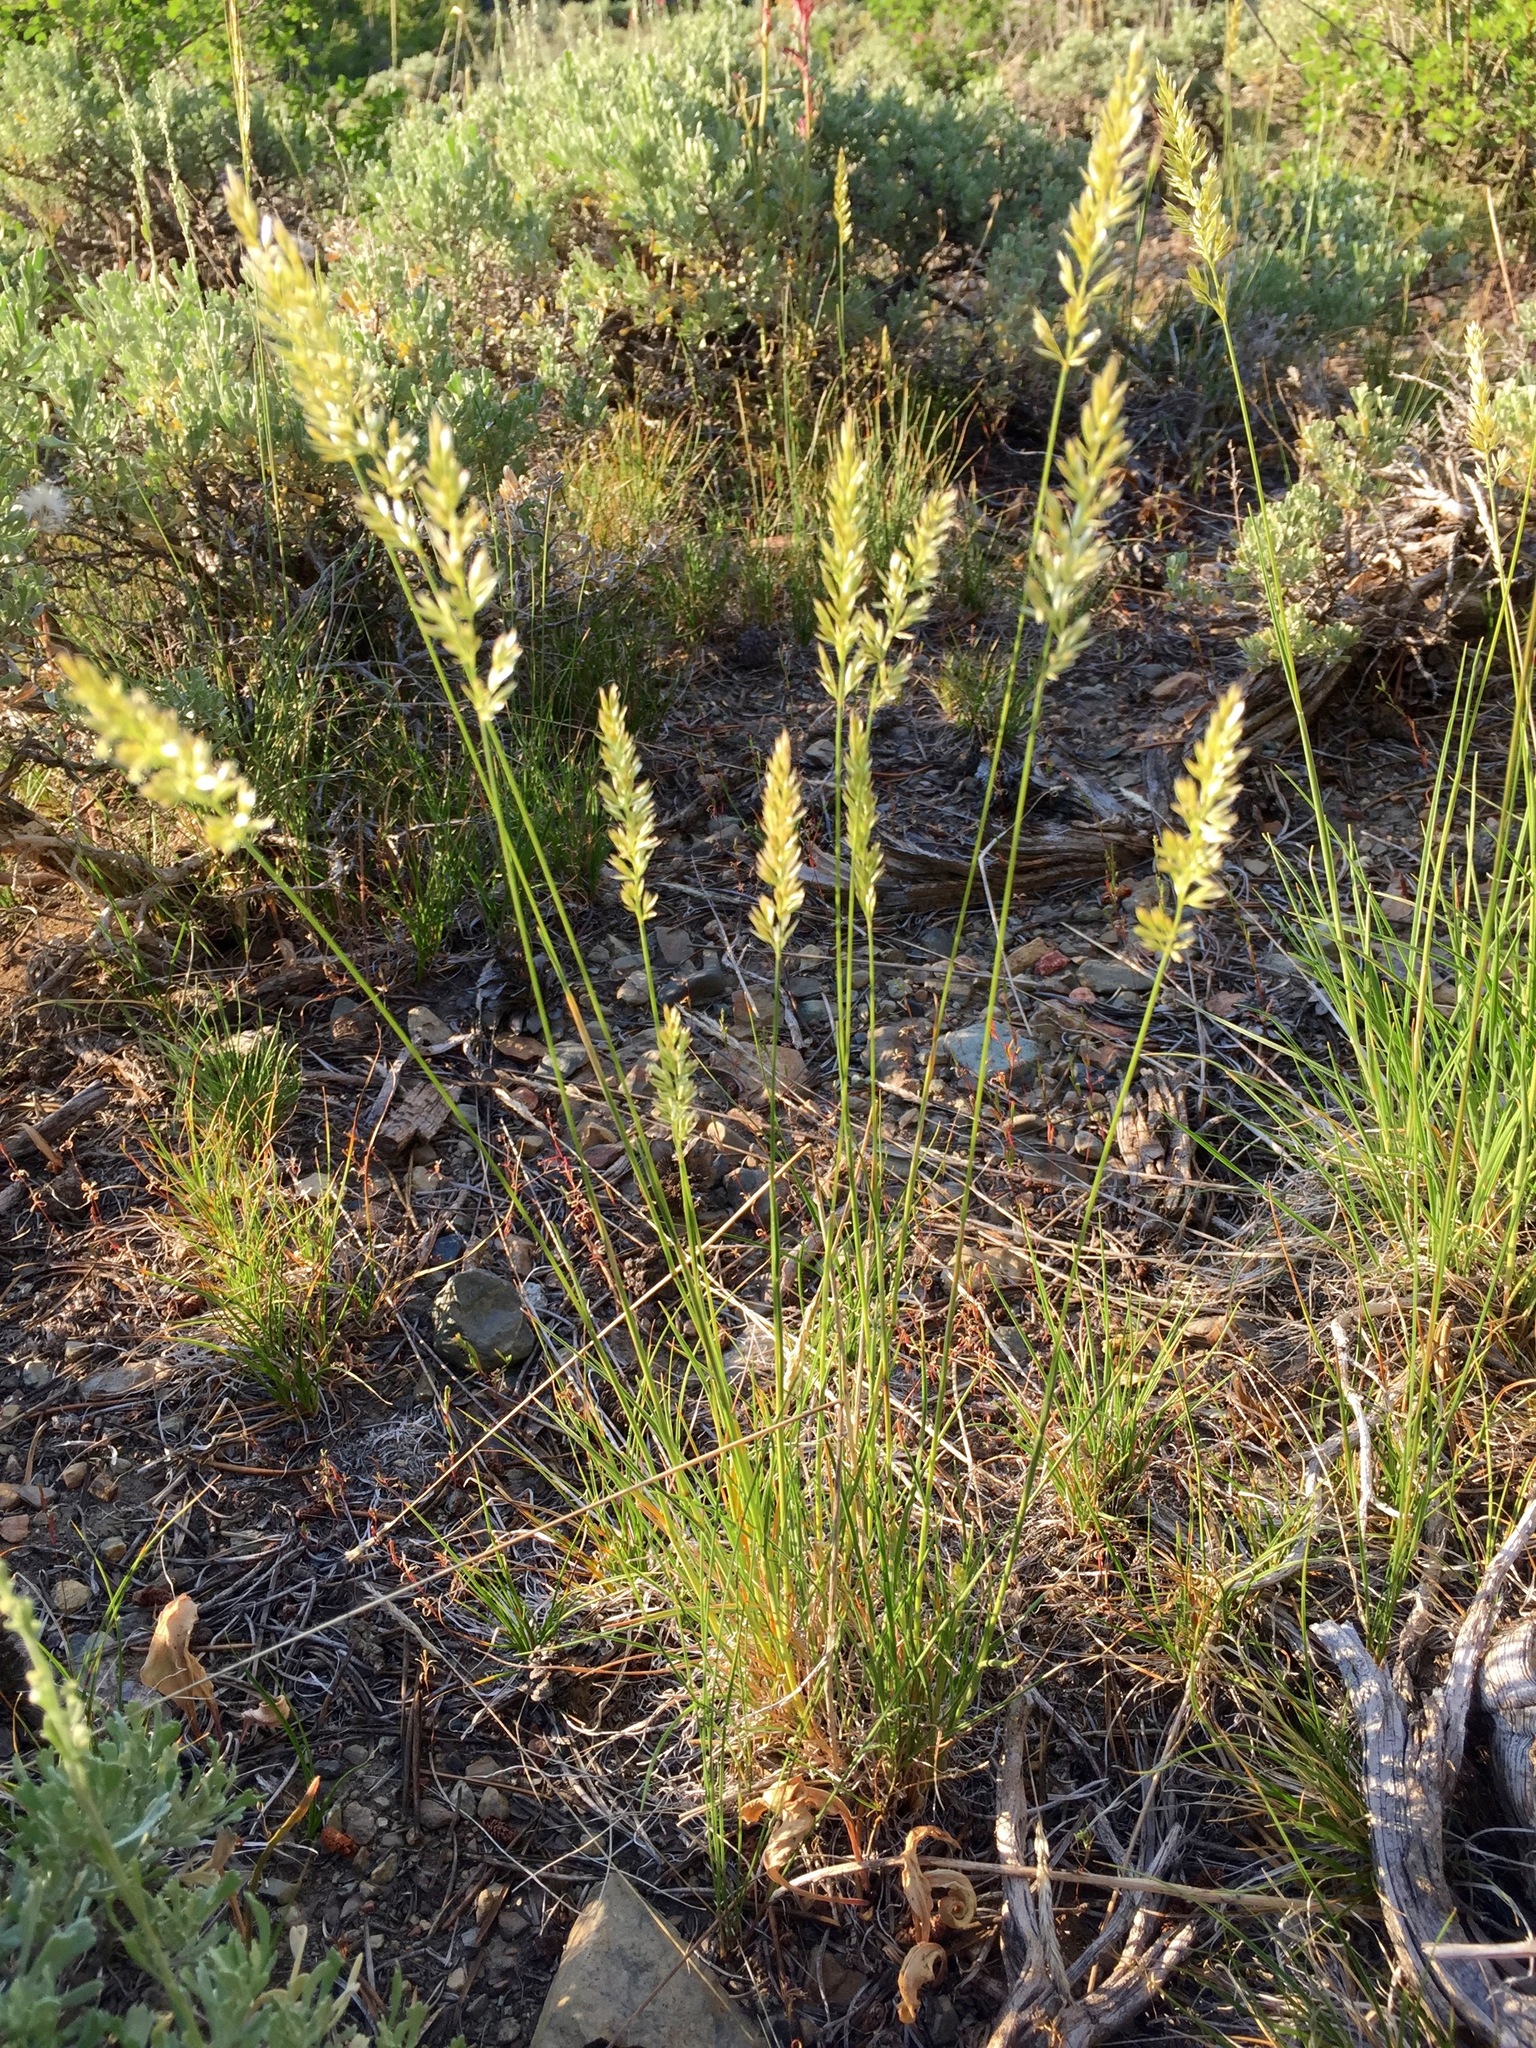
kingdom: Plantae
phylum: Tracheophyta
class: Liliopsida
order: Poales
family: Poaceae
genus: Koeleria
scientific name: Koeleria macrantha
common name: Crested hair-grass
